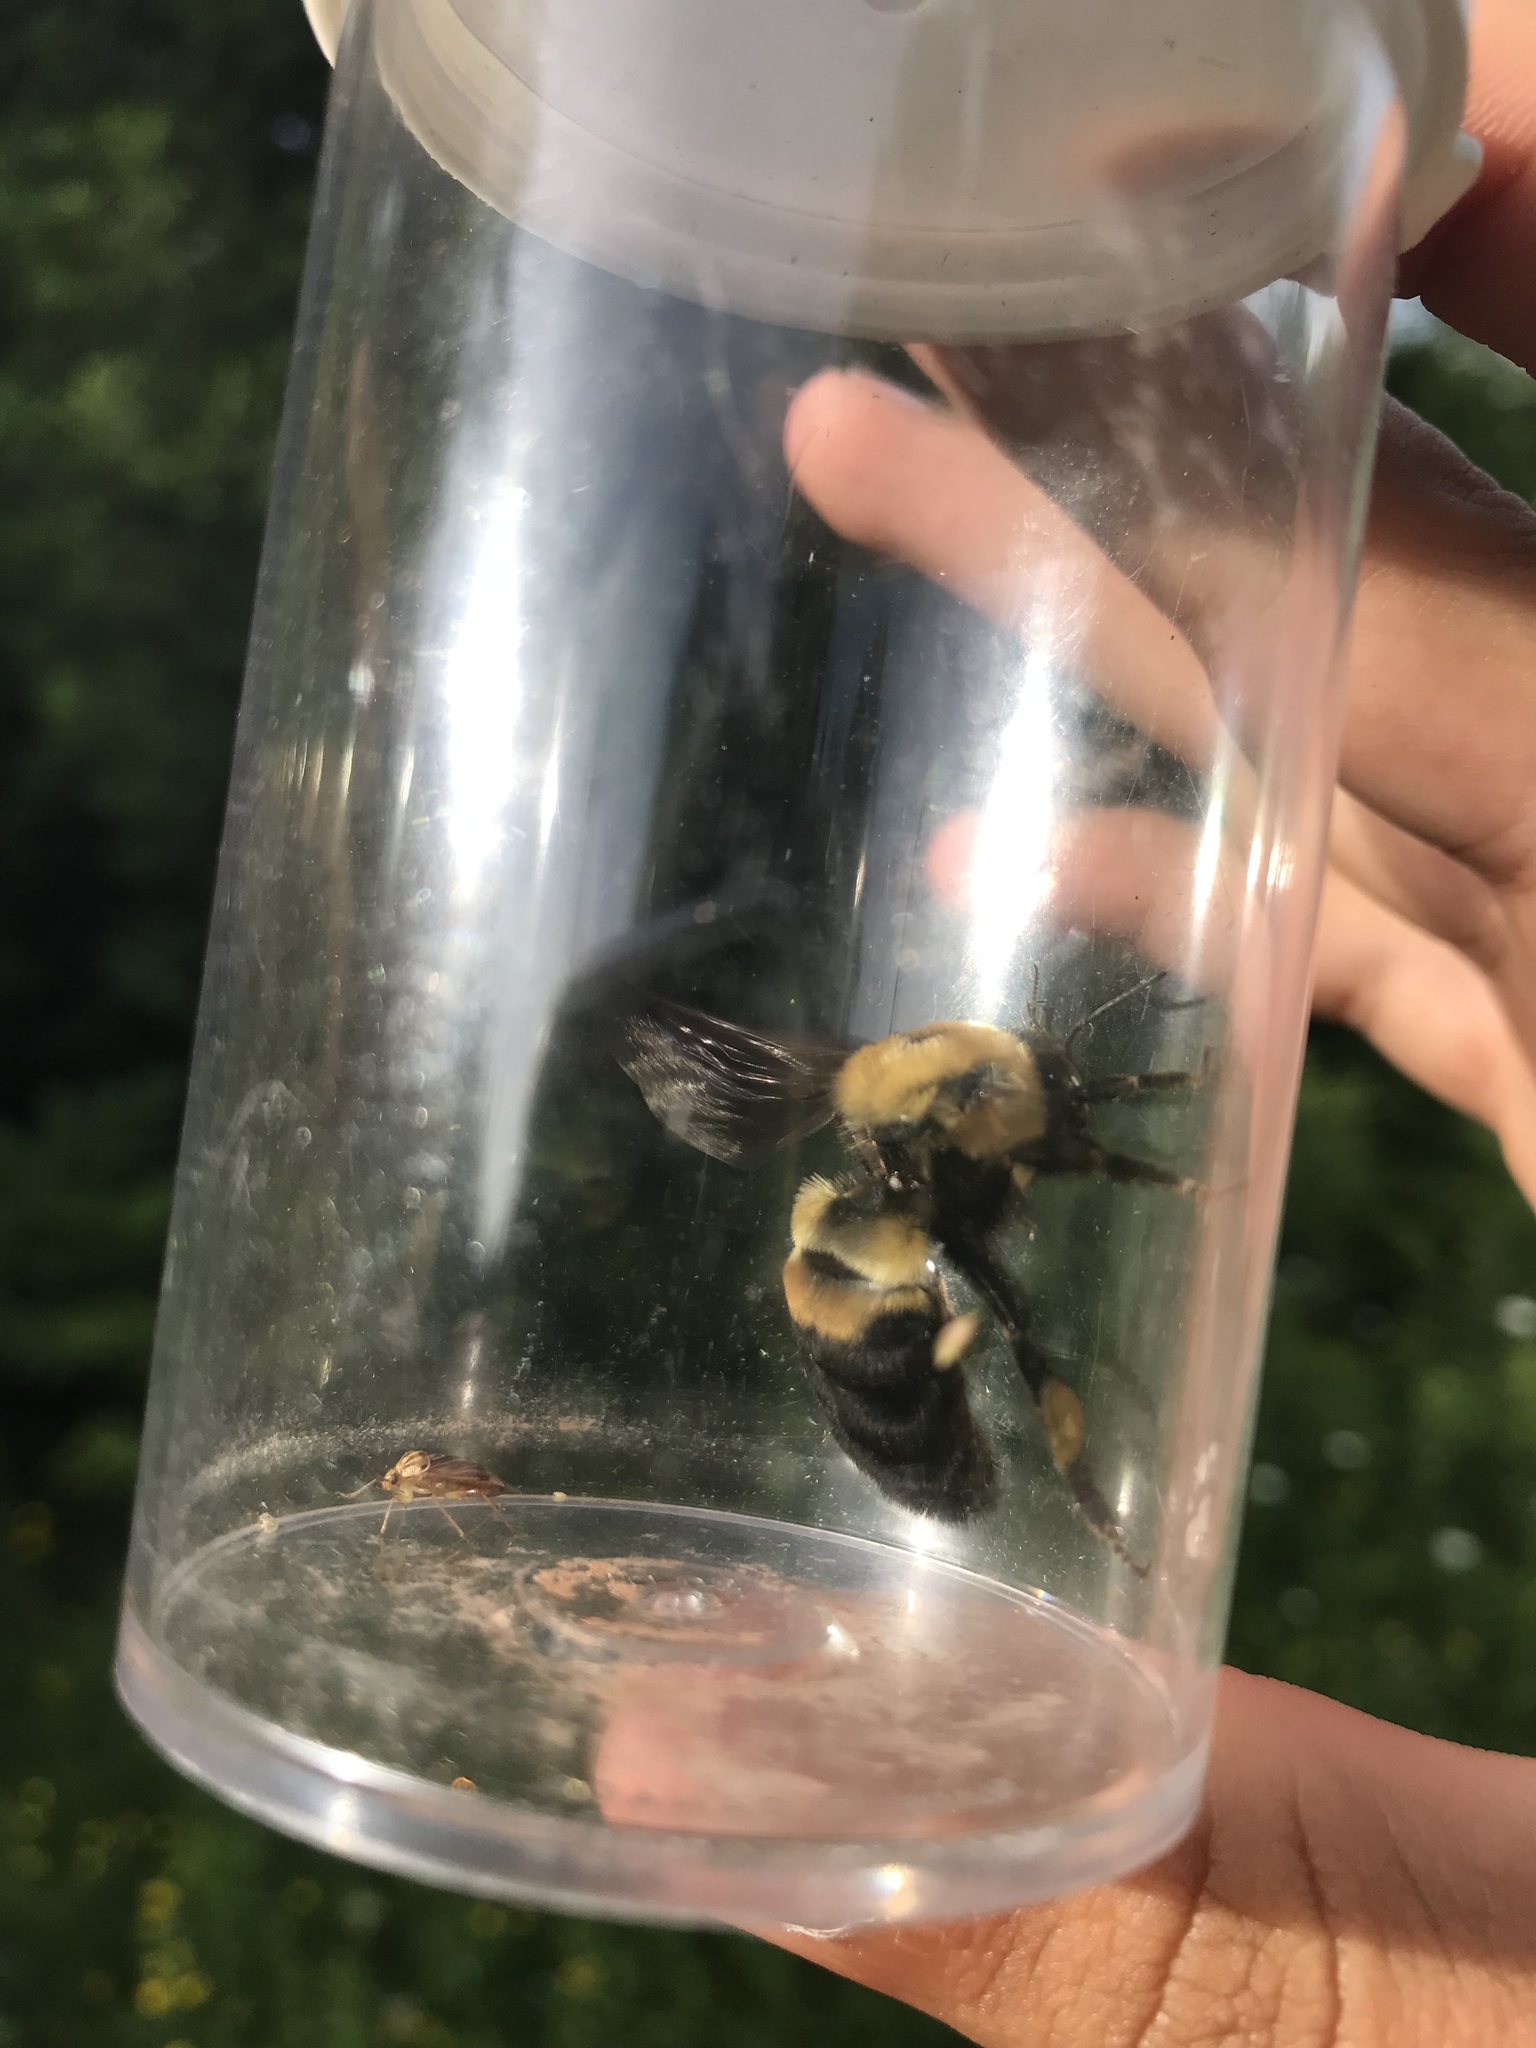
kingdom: Animalia
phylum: Arthropoda
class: Insecta
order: Hymenoptera
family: Apidae
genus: Bombus
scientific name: Bombus griseocollis
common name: Brown-belted bumble bee
